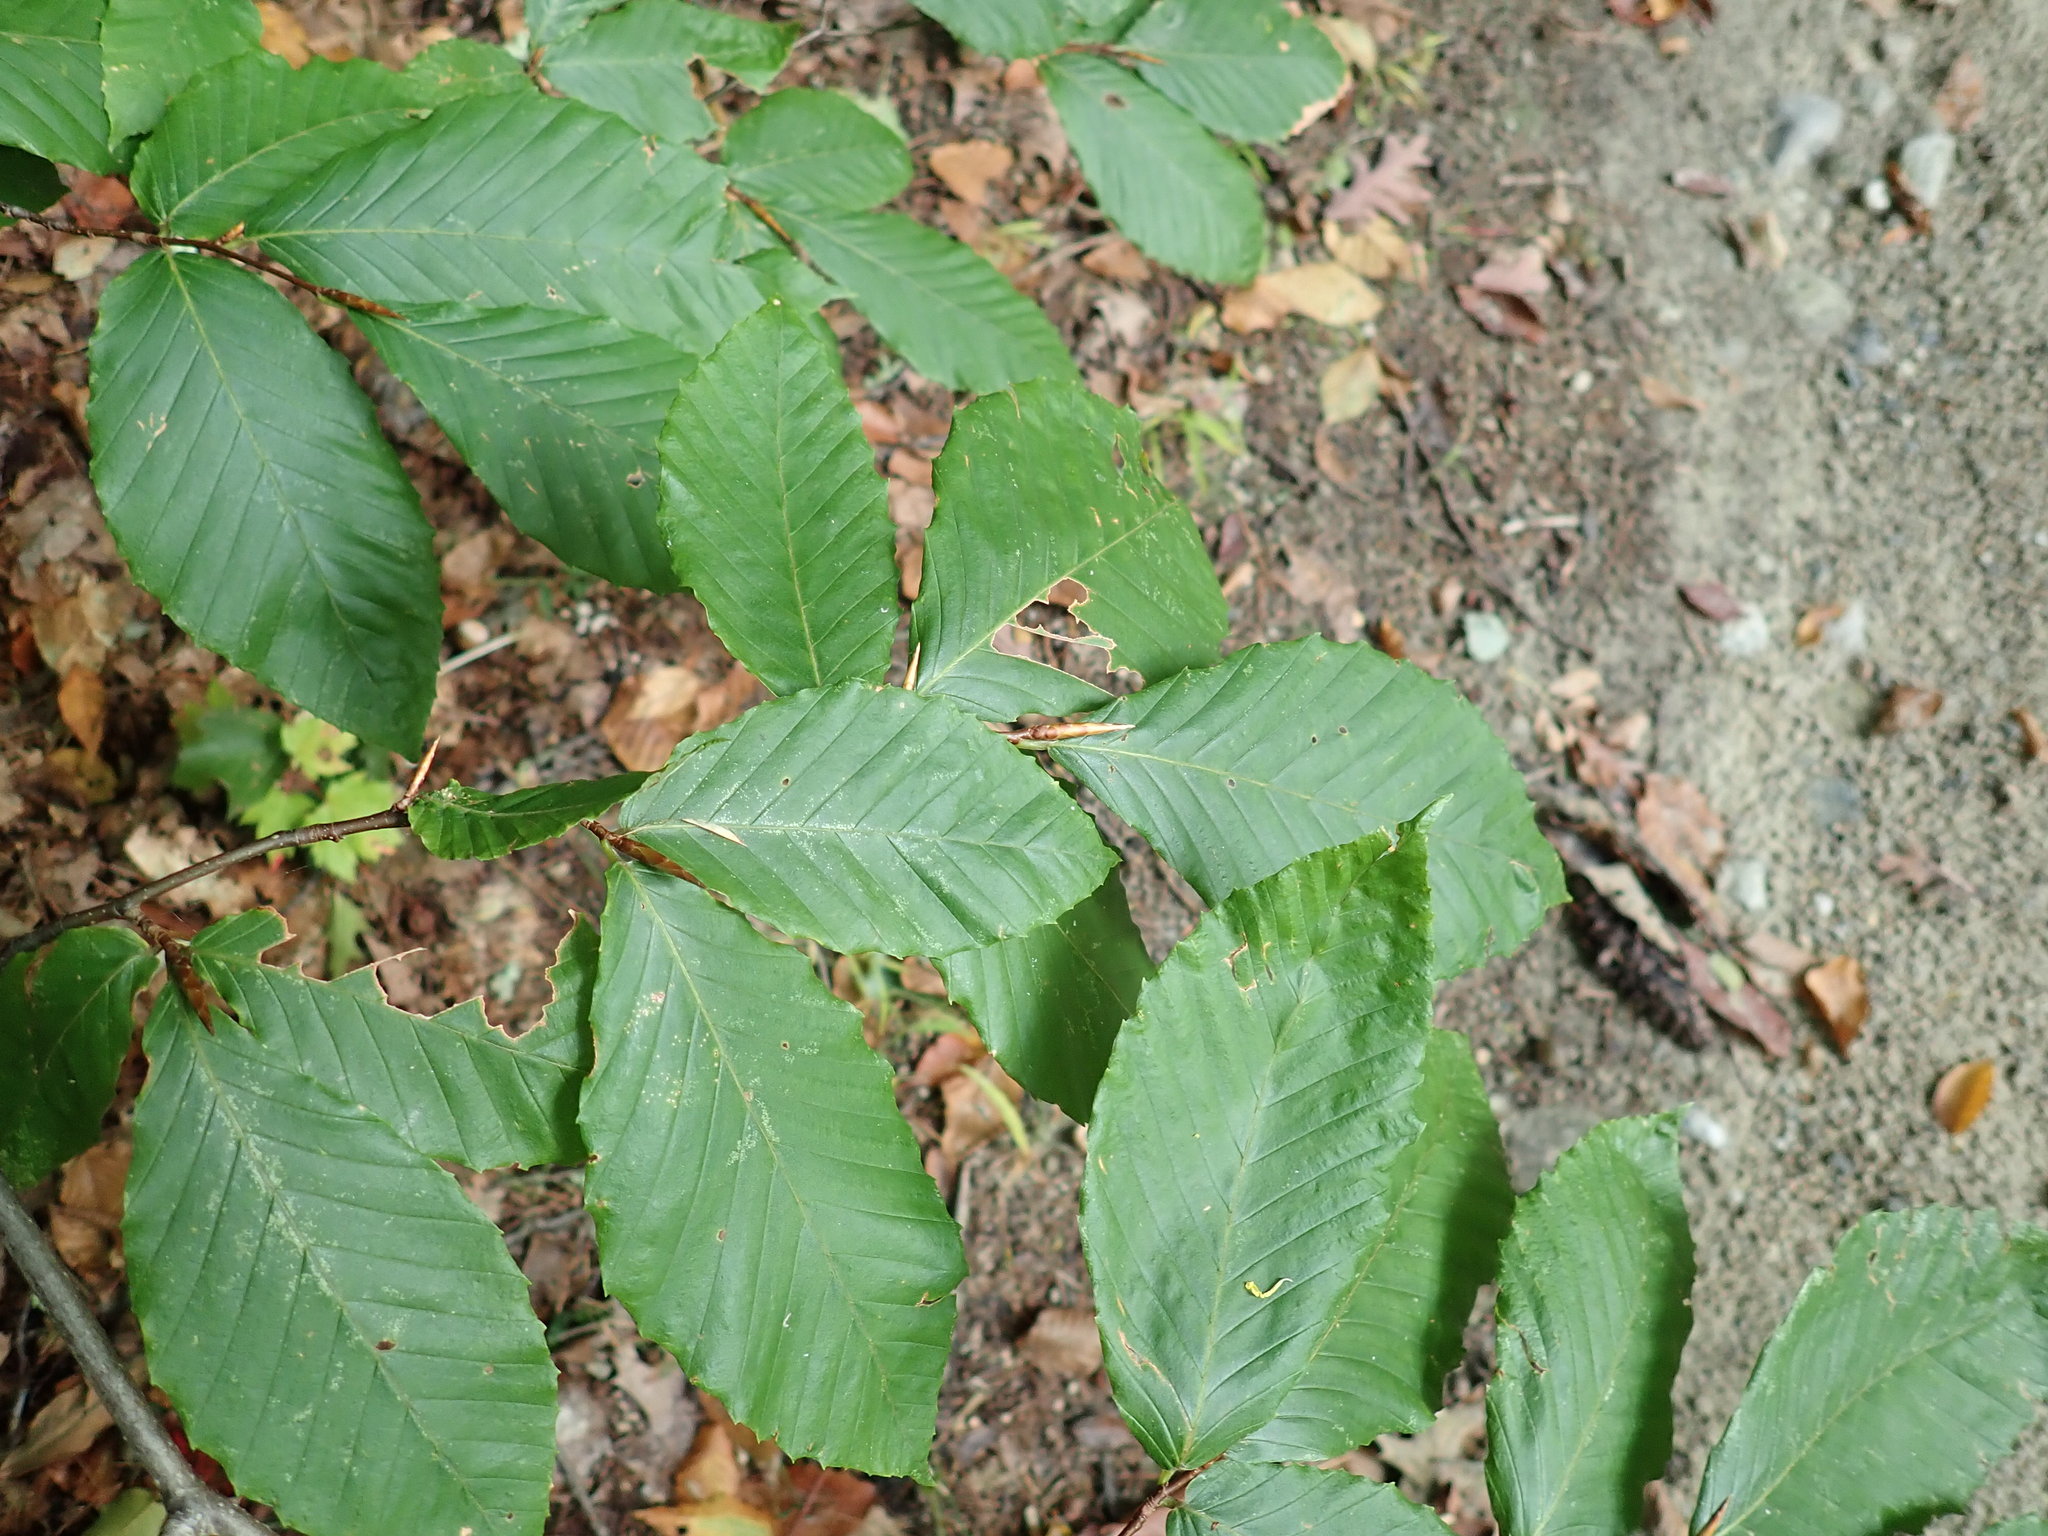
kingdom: Plantae
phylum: Tracheophyta
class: Magnoliopsida
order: Fagales
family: Fagaceae
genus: Fagus
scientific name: Fagus grandifolia
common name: American beech
